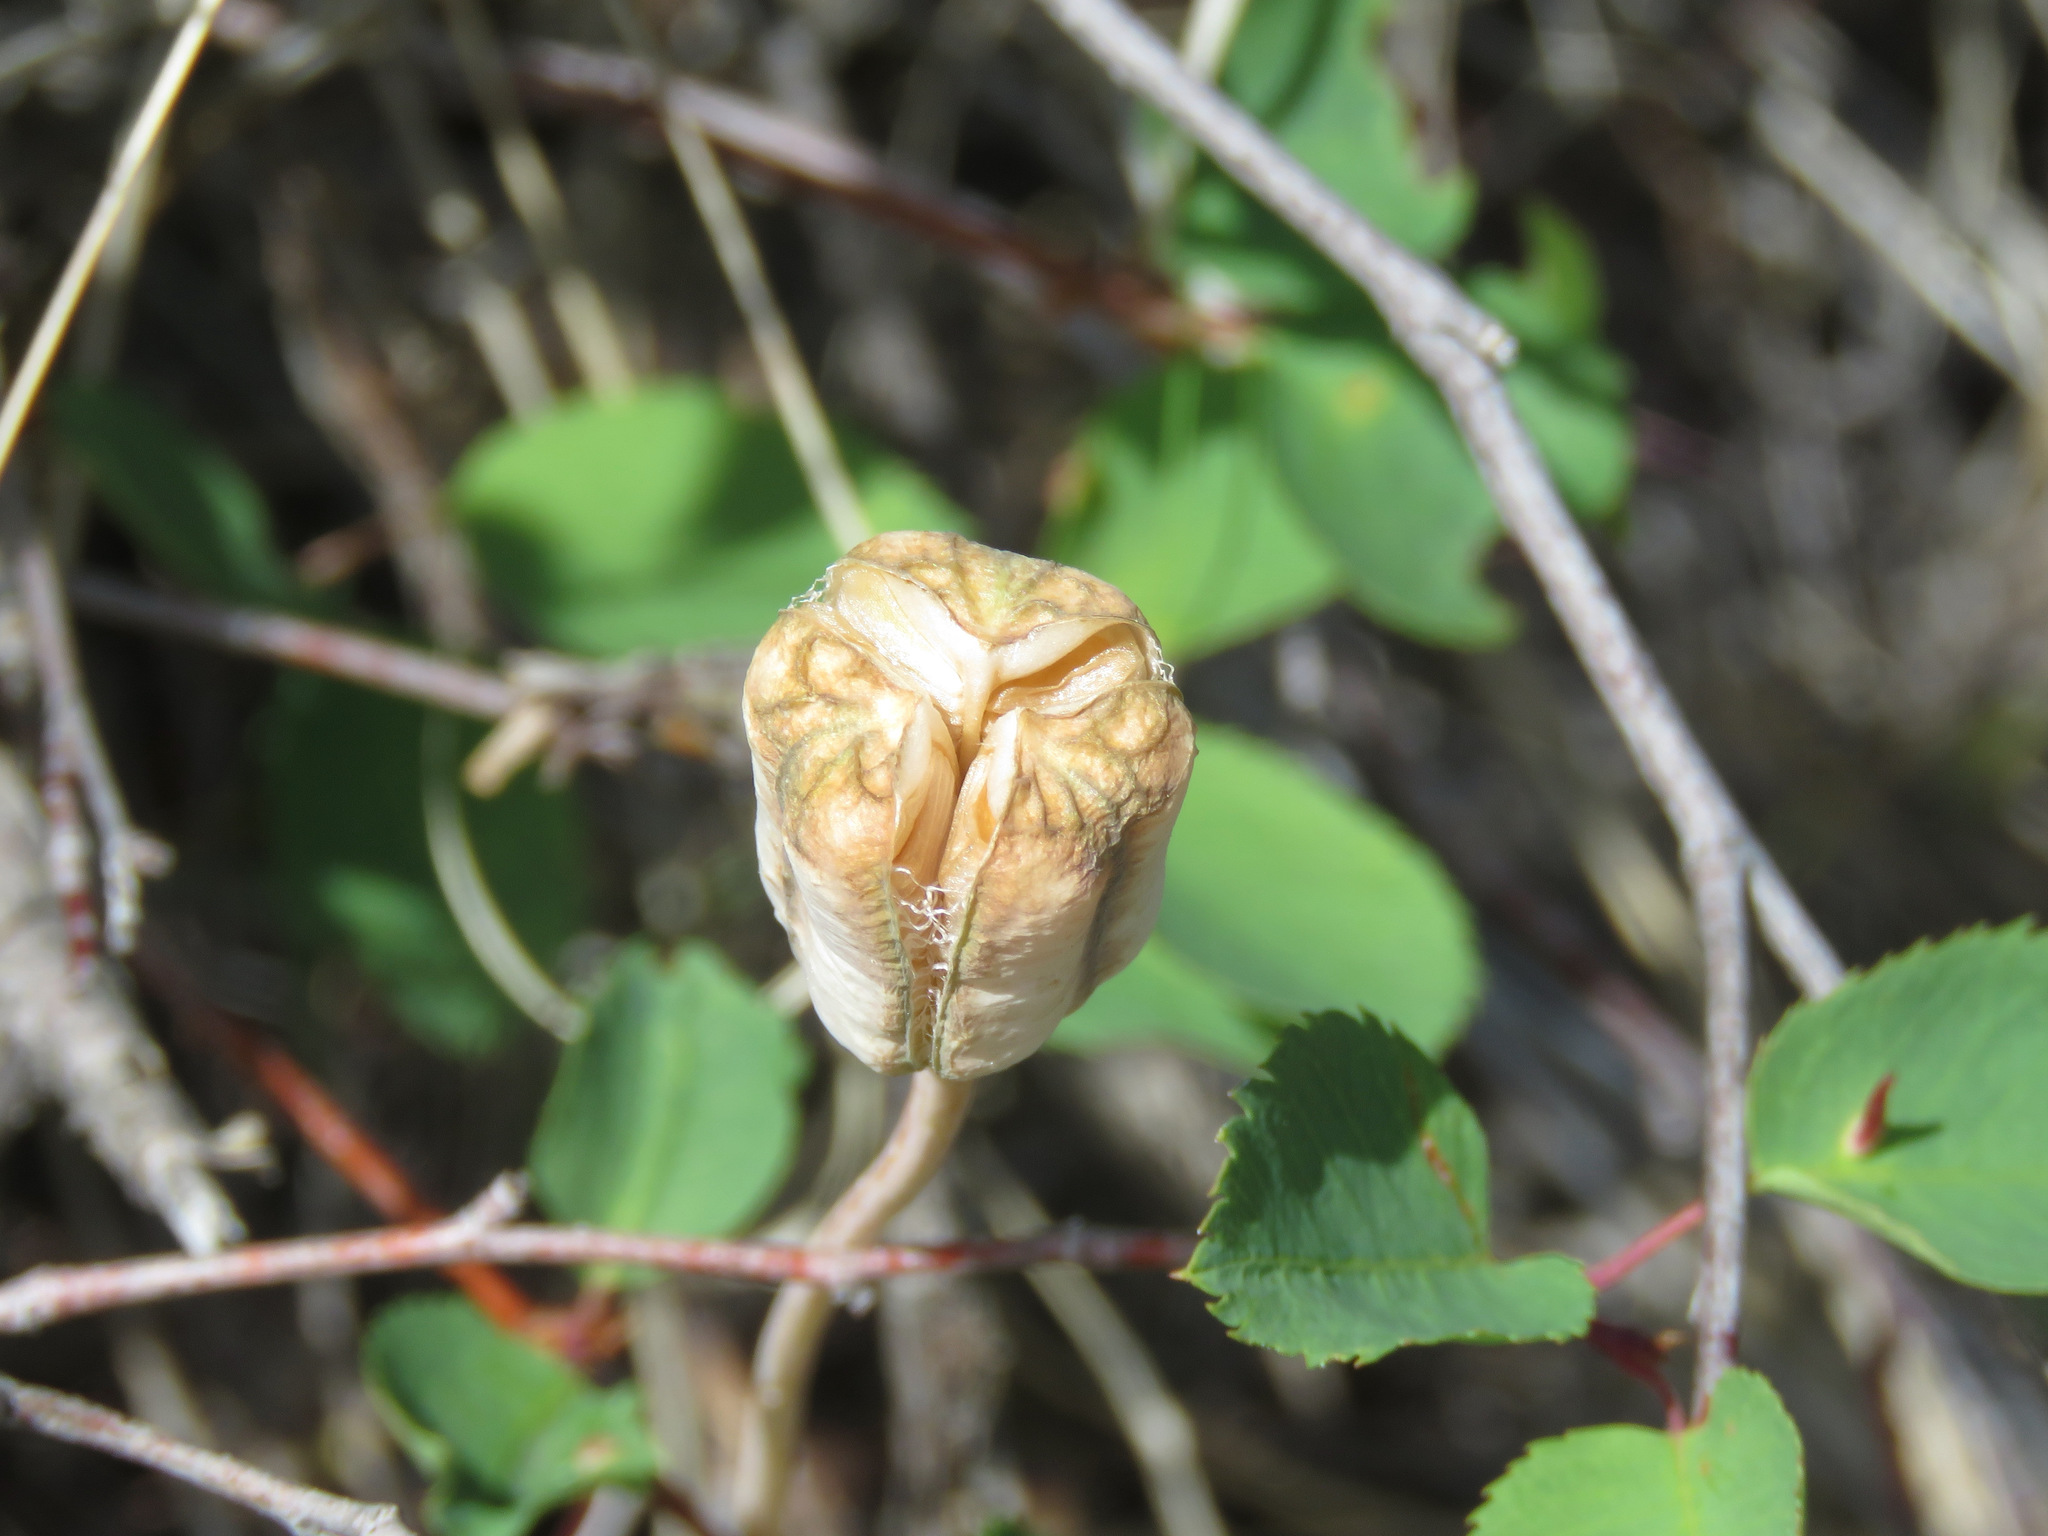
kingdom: Plantae
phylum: Tracheophyta
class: Liliopsida
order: Liliales
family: Liliaceae
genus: Fritillaria
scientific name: Fritillaria pudica
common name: Yellow fritillary
